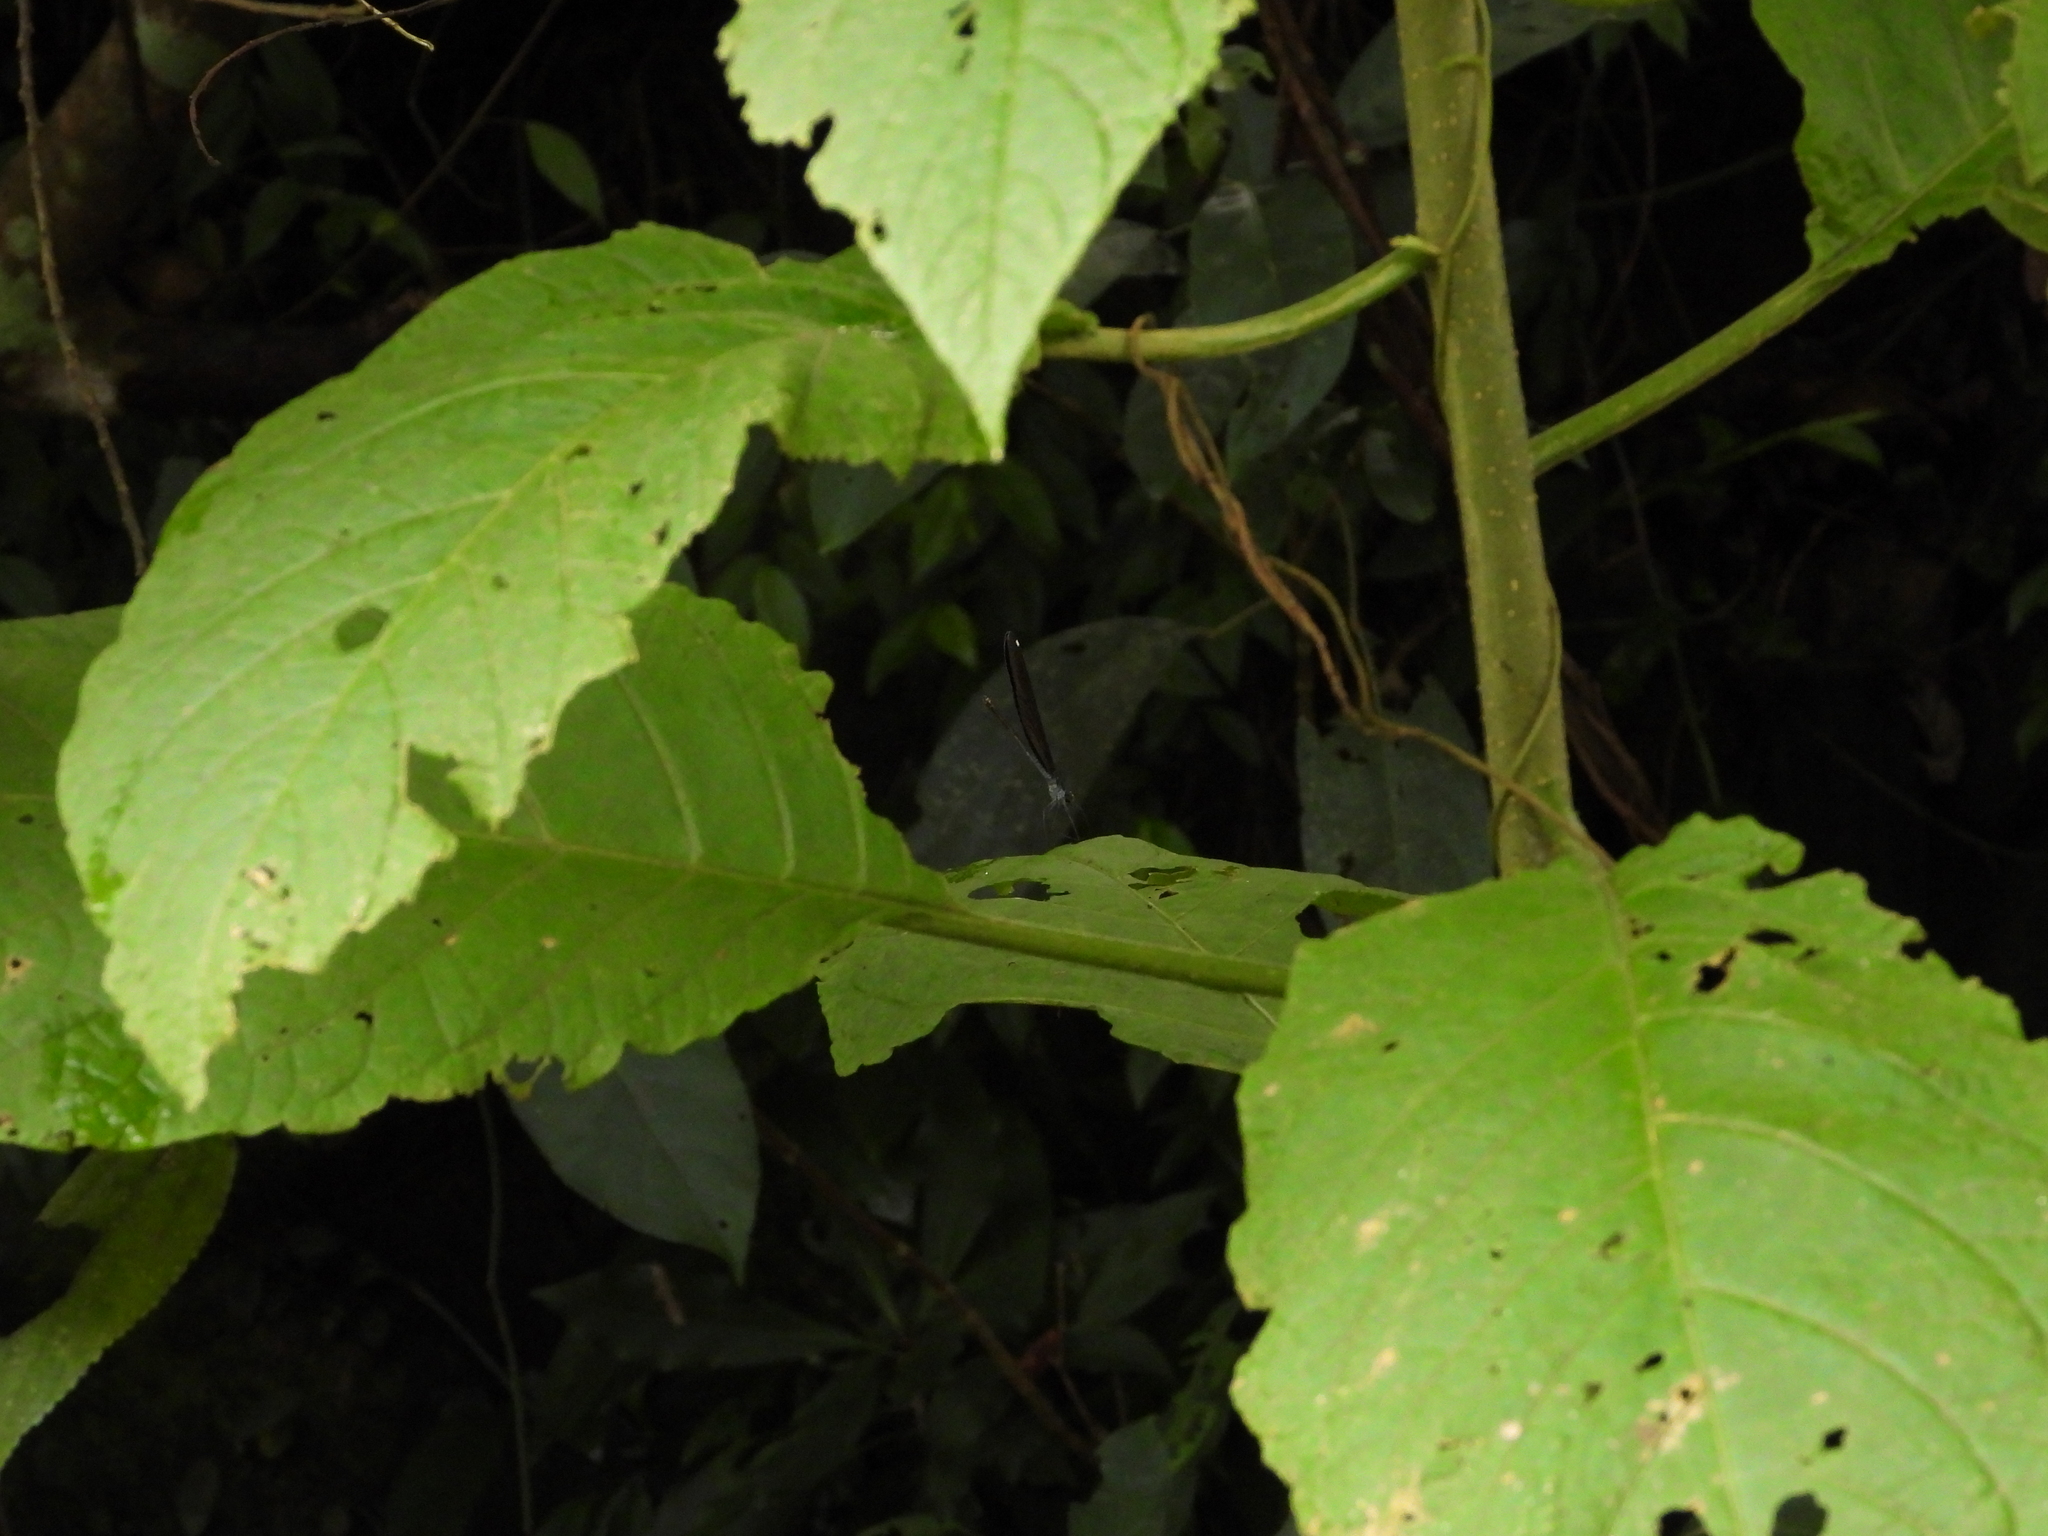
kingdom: Animalia
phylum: Arthropoda
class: Insecta
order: Odonata
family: Calopterygidae
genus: Matrona
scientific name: Matrona cyanoptera
